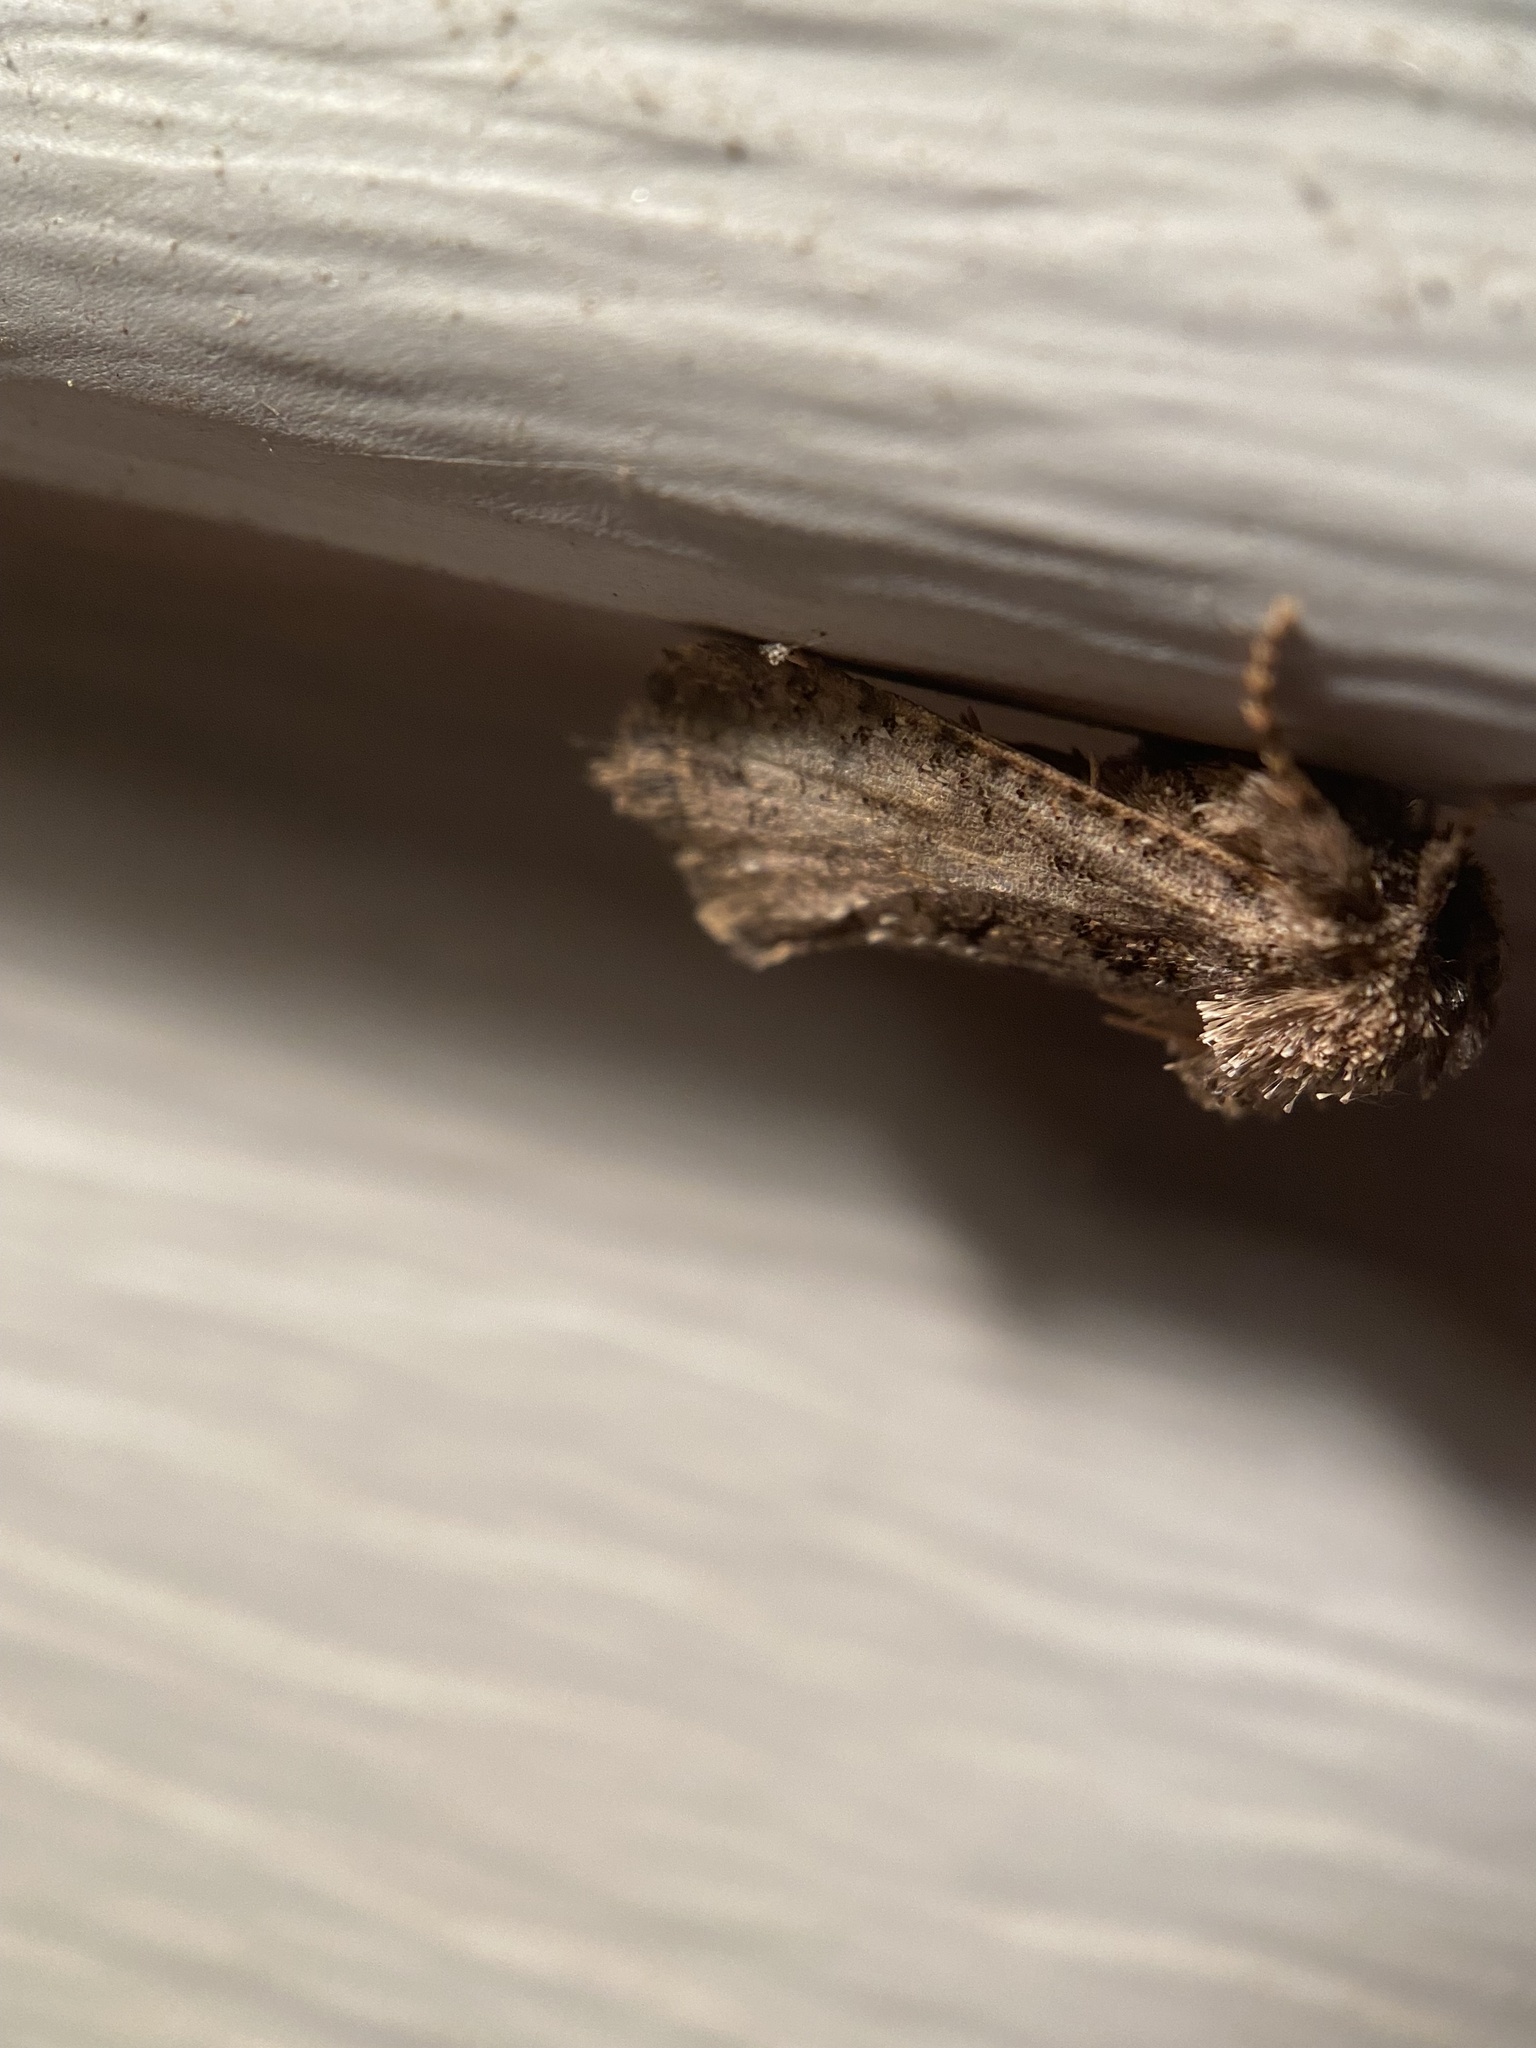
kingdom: Animalia
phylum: Arthropoda
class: Insecta
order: Lepidoptera
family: Tineidae
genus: Acrolophus
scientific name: Acrolophus arcanella
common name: Arcane grass tubeworm moth
